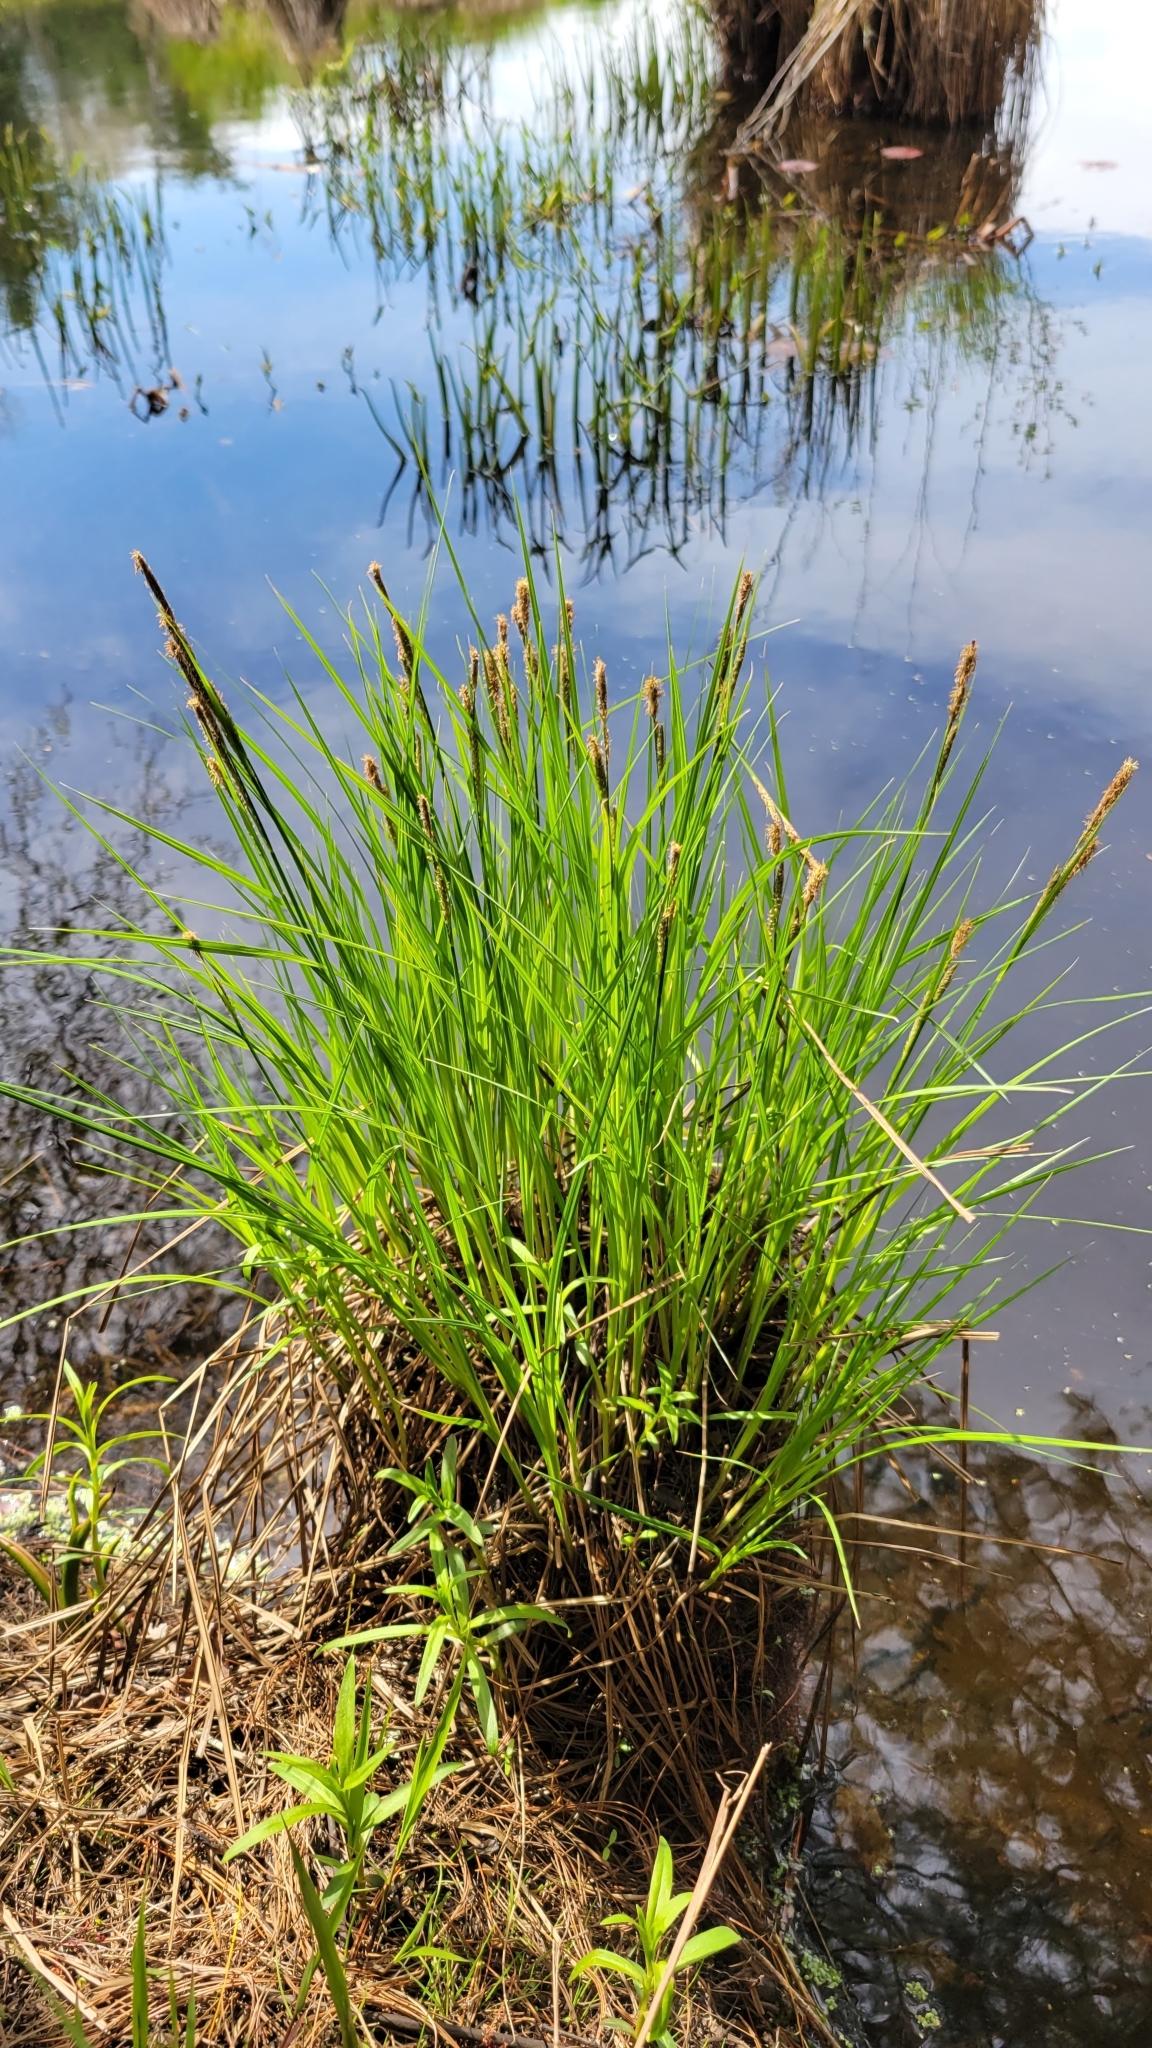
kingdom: Plantae
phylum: Tracheophyta
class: Liliopsida
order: Poales
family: Cyperaceae
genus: Carex
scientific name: Carex stricta
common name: Hummock sedge
